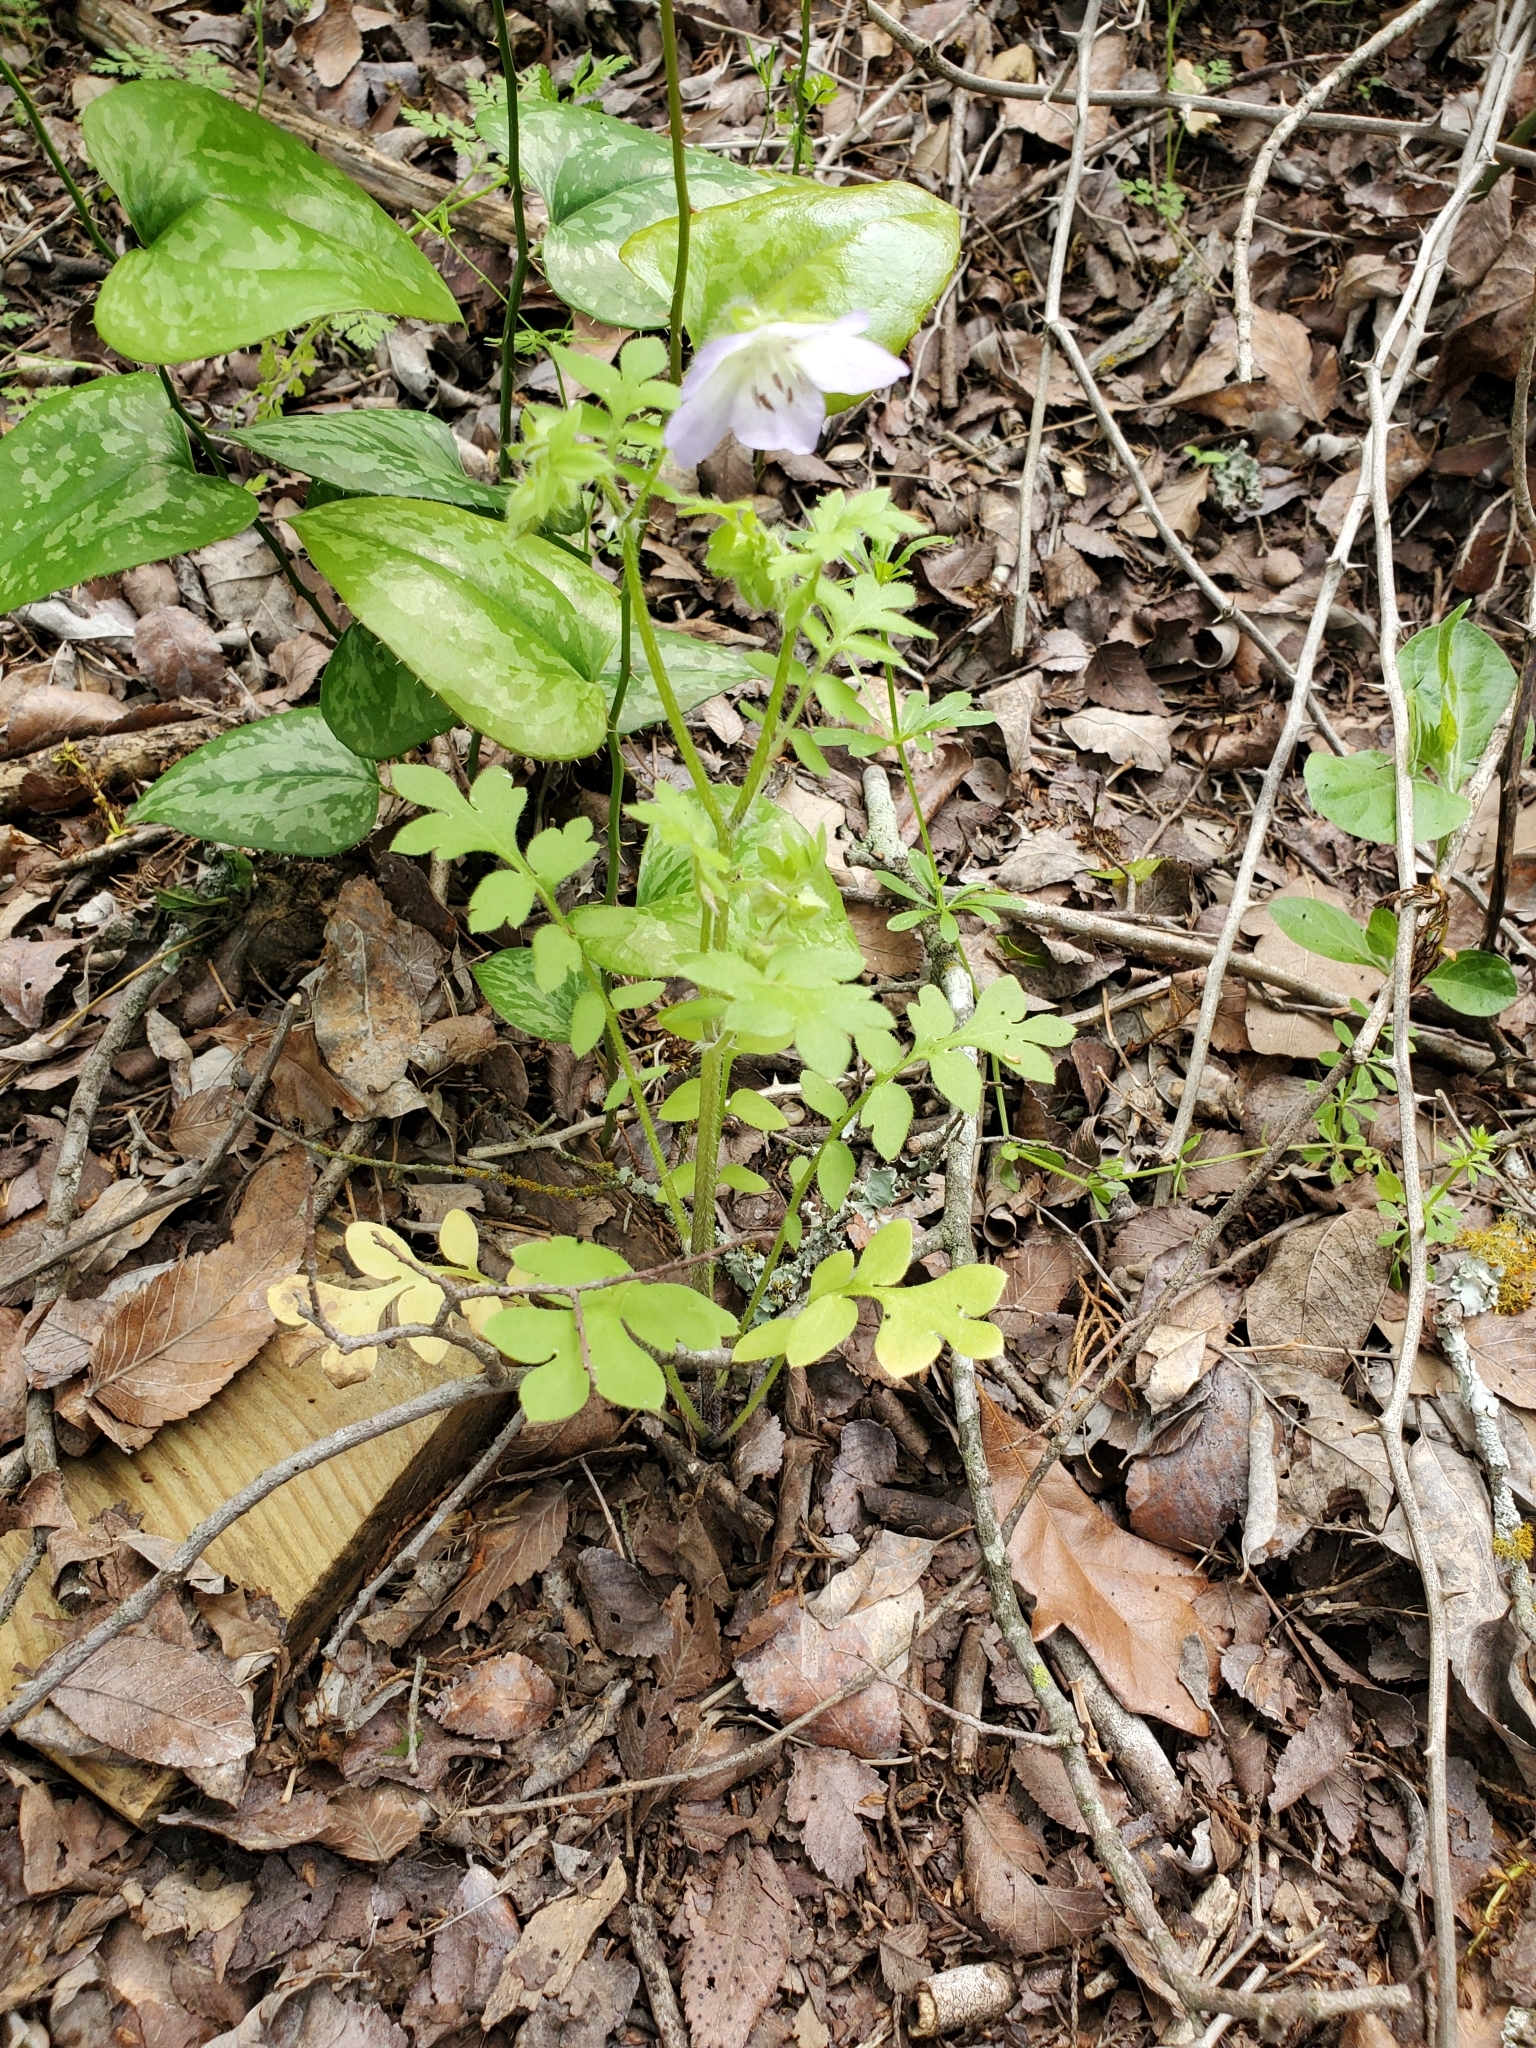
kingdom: Plantae
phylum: Tracheophyta
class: Magnoliopsida
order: Boraginales
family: Hydrophyllaceae
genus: Nemophila
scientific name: Nemophila phacelioides
